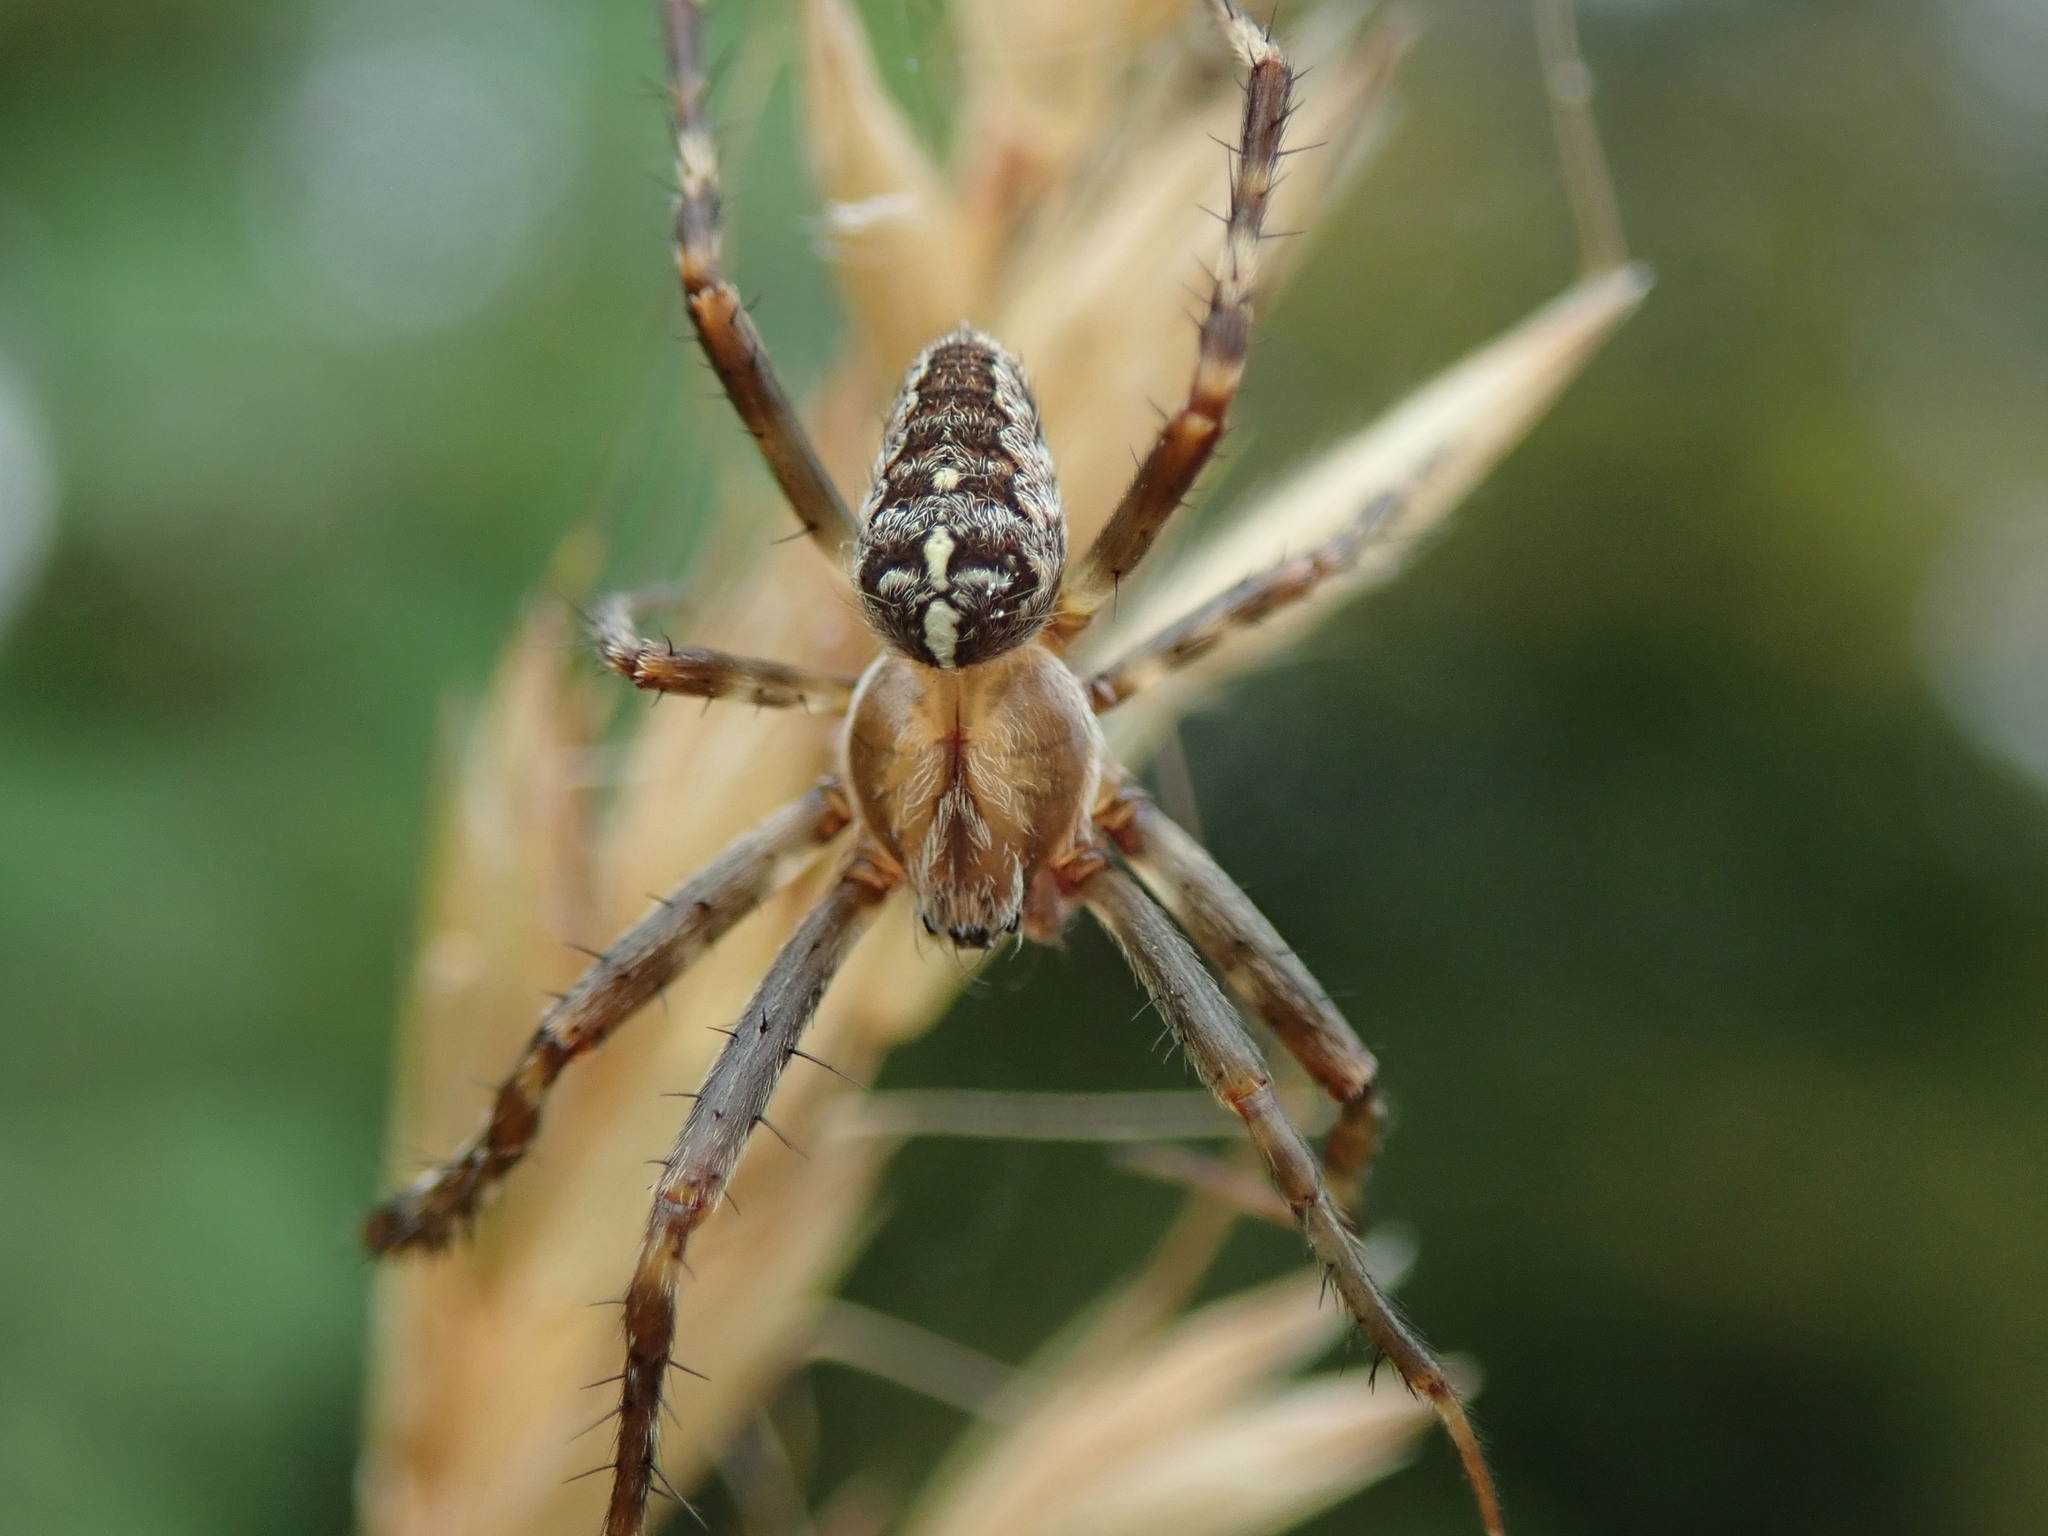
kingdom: Animalia
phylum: Arthropoda
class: Arachnida
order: Araneae
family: Araneidae
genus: Araneus
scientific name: Araneus diadematus
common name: Cross orbweaver
